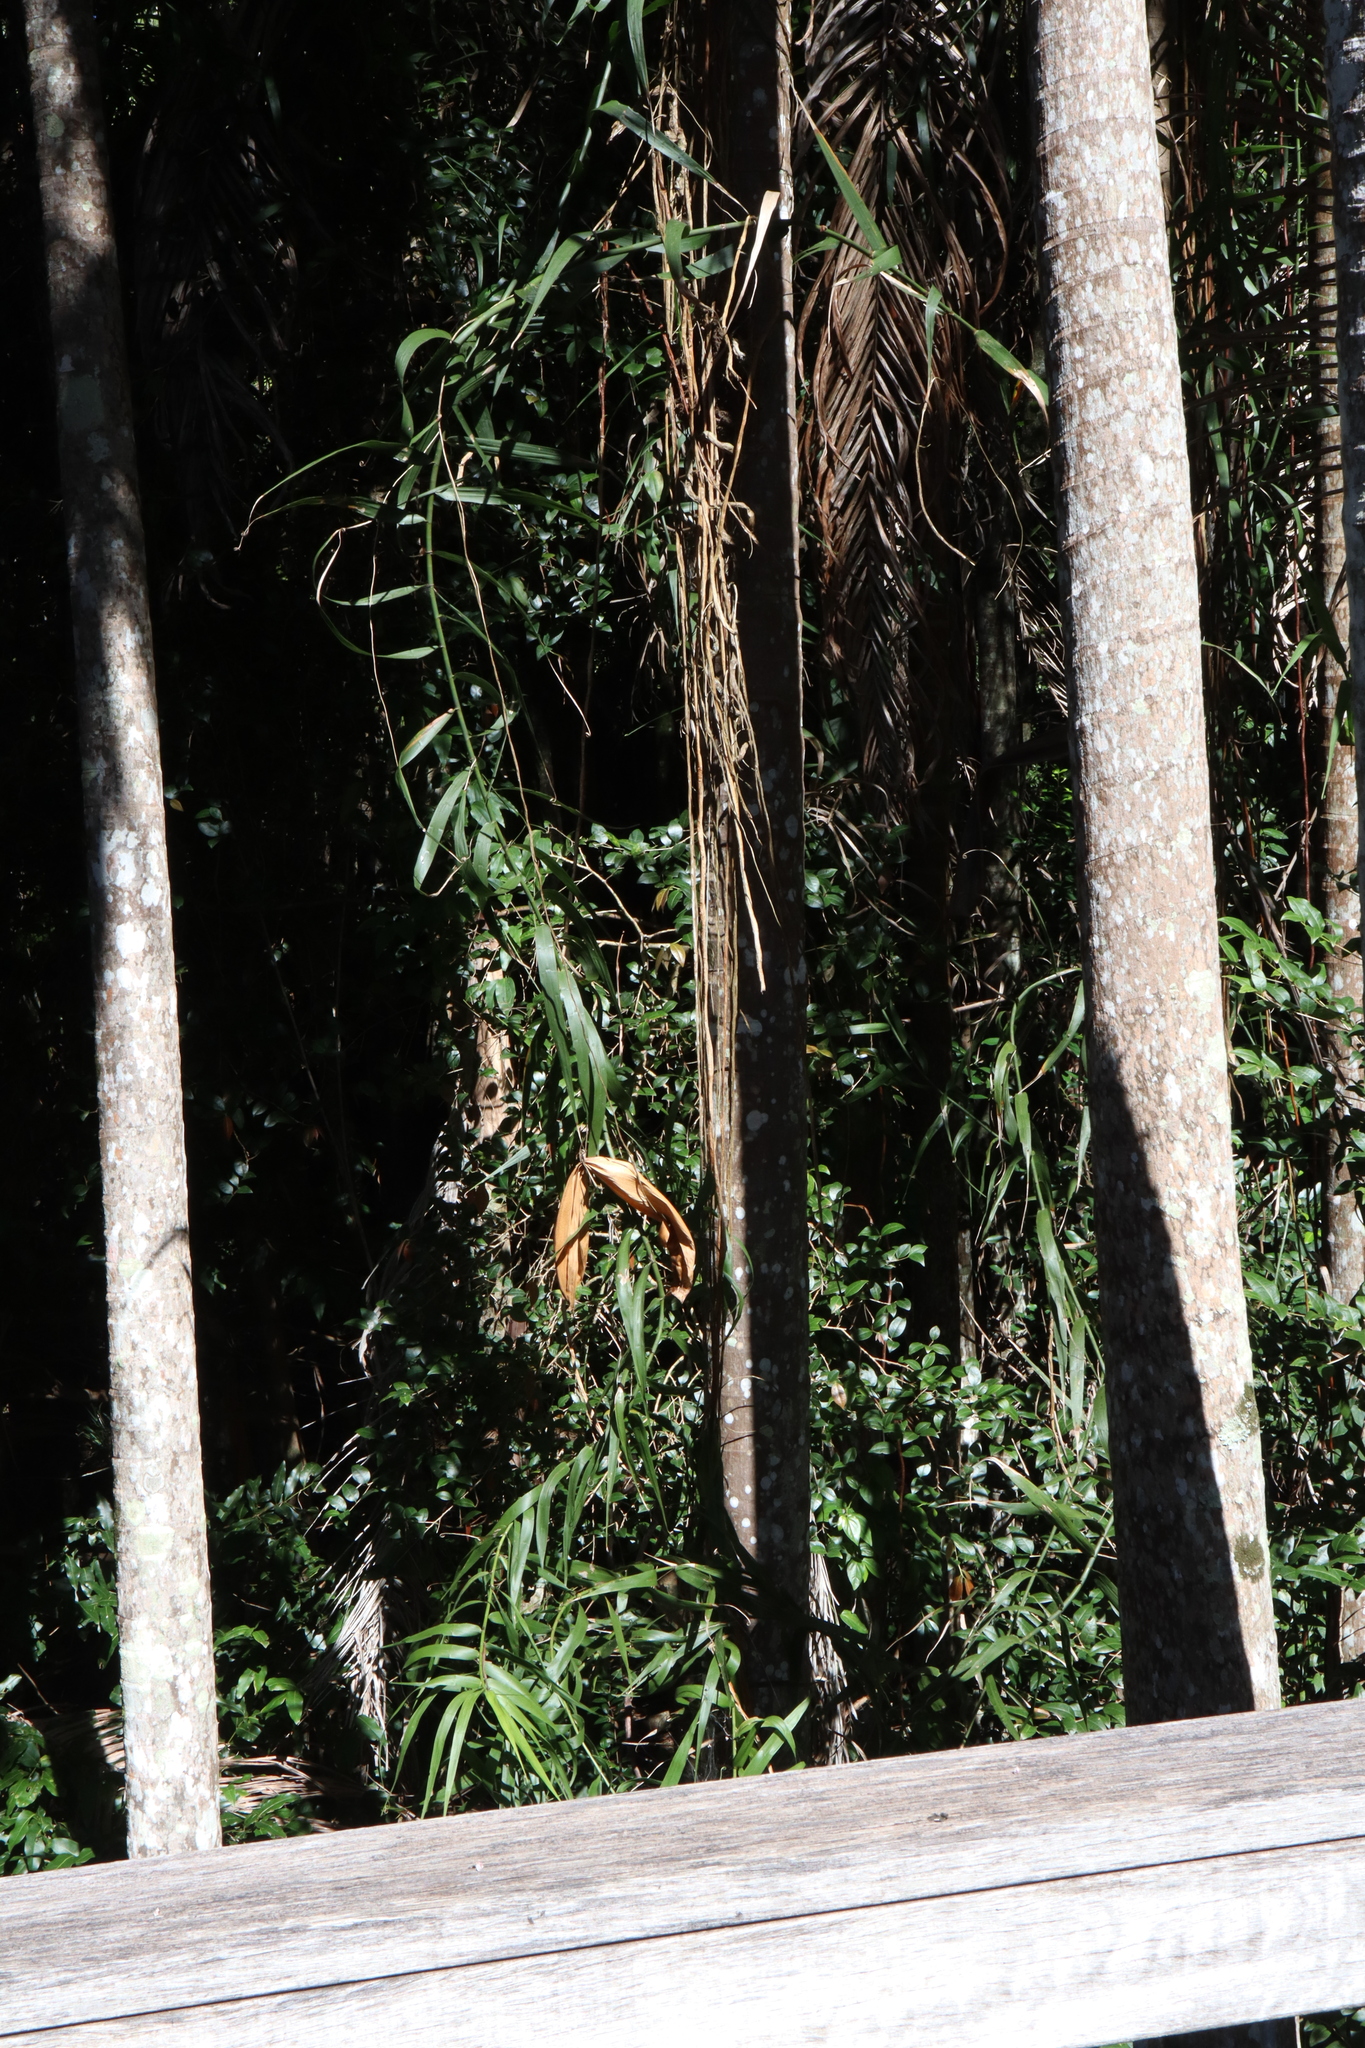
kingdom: Plantae
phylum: Tracheophyta
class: Liliopsida
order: Poales
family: Flagellariaceae
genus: Flagellaria
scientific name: Flagellaria indica
